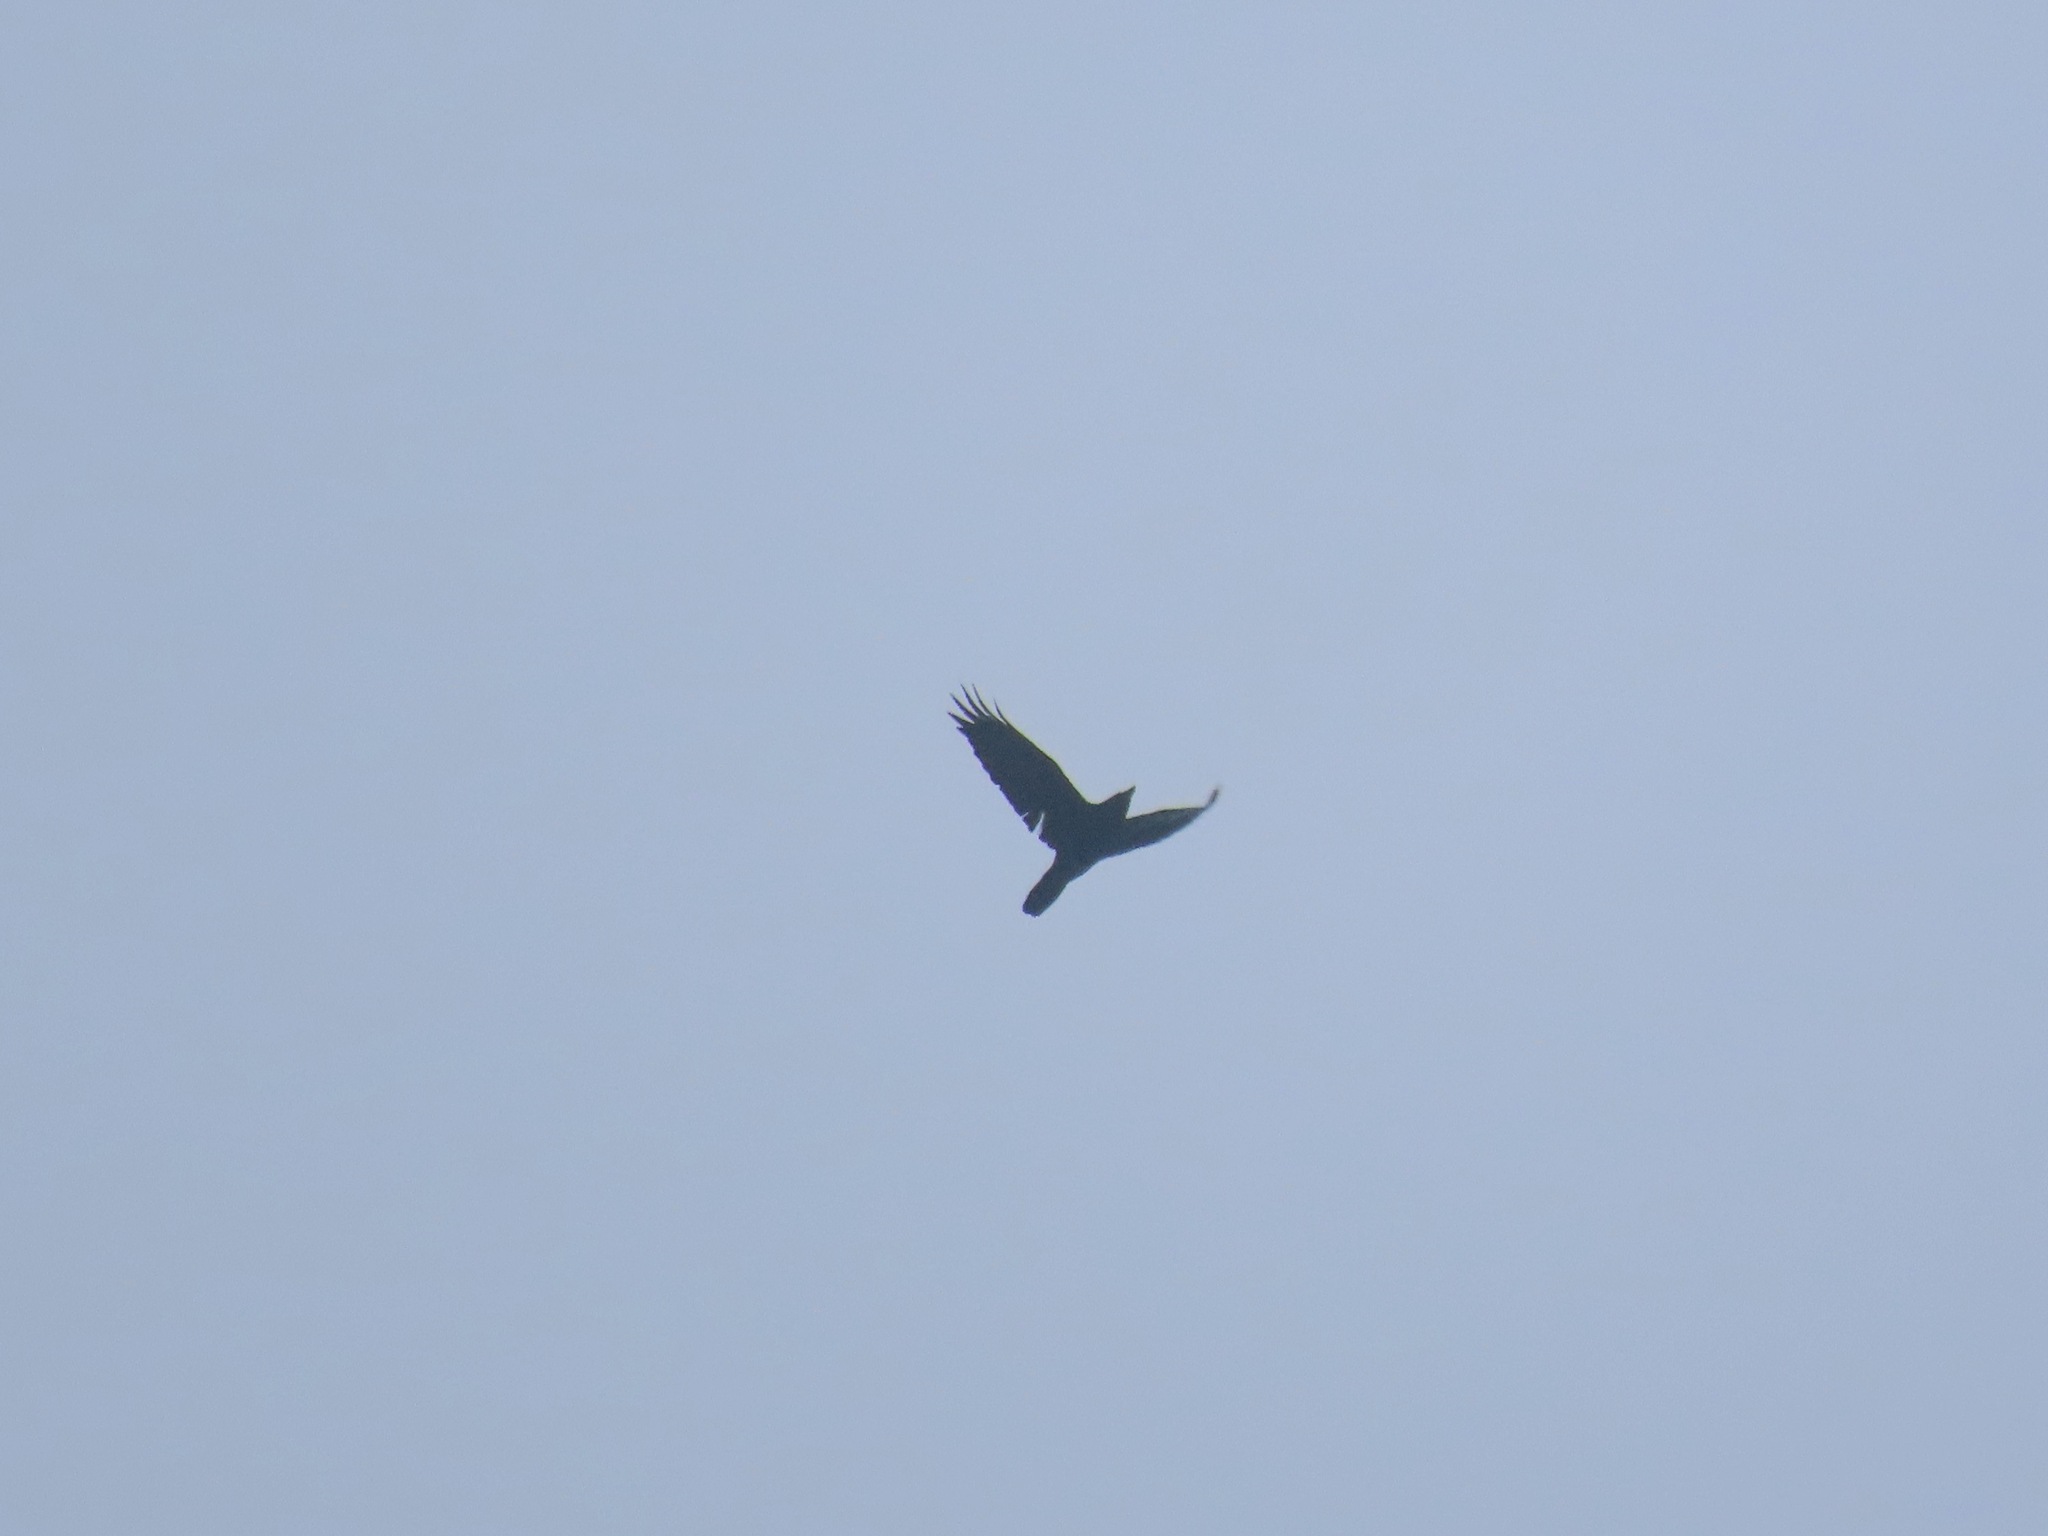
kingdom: Animalia
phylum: Chordata
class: Aves
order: Passeriformes
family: Corvidae
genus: Corvus
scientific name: Corvus corax
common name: Common raven
